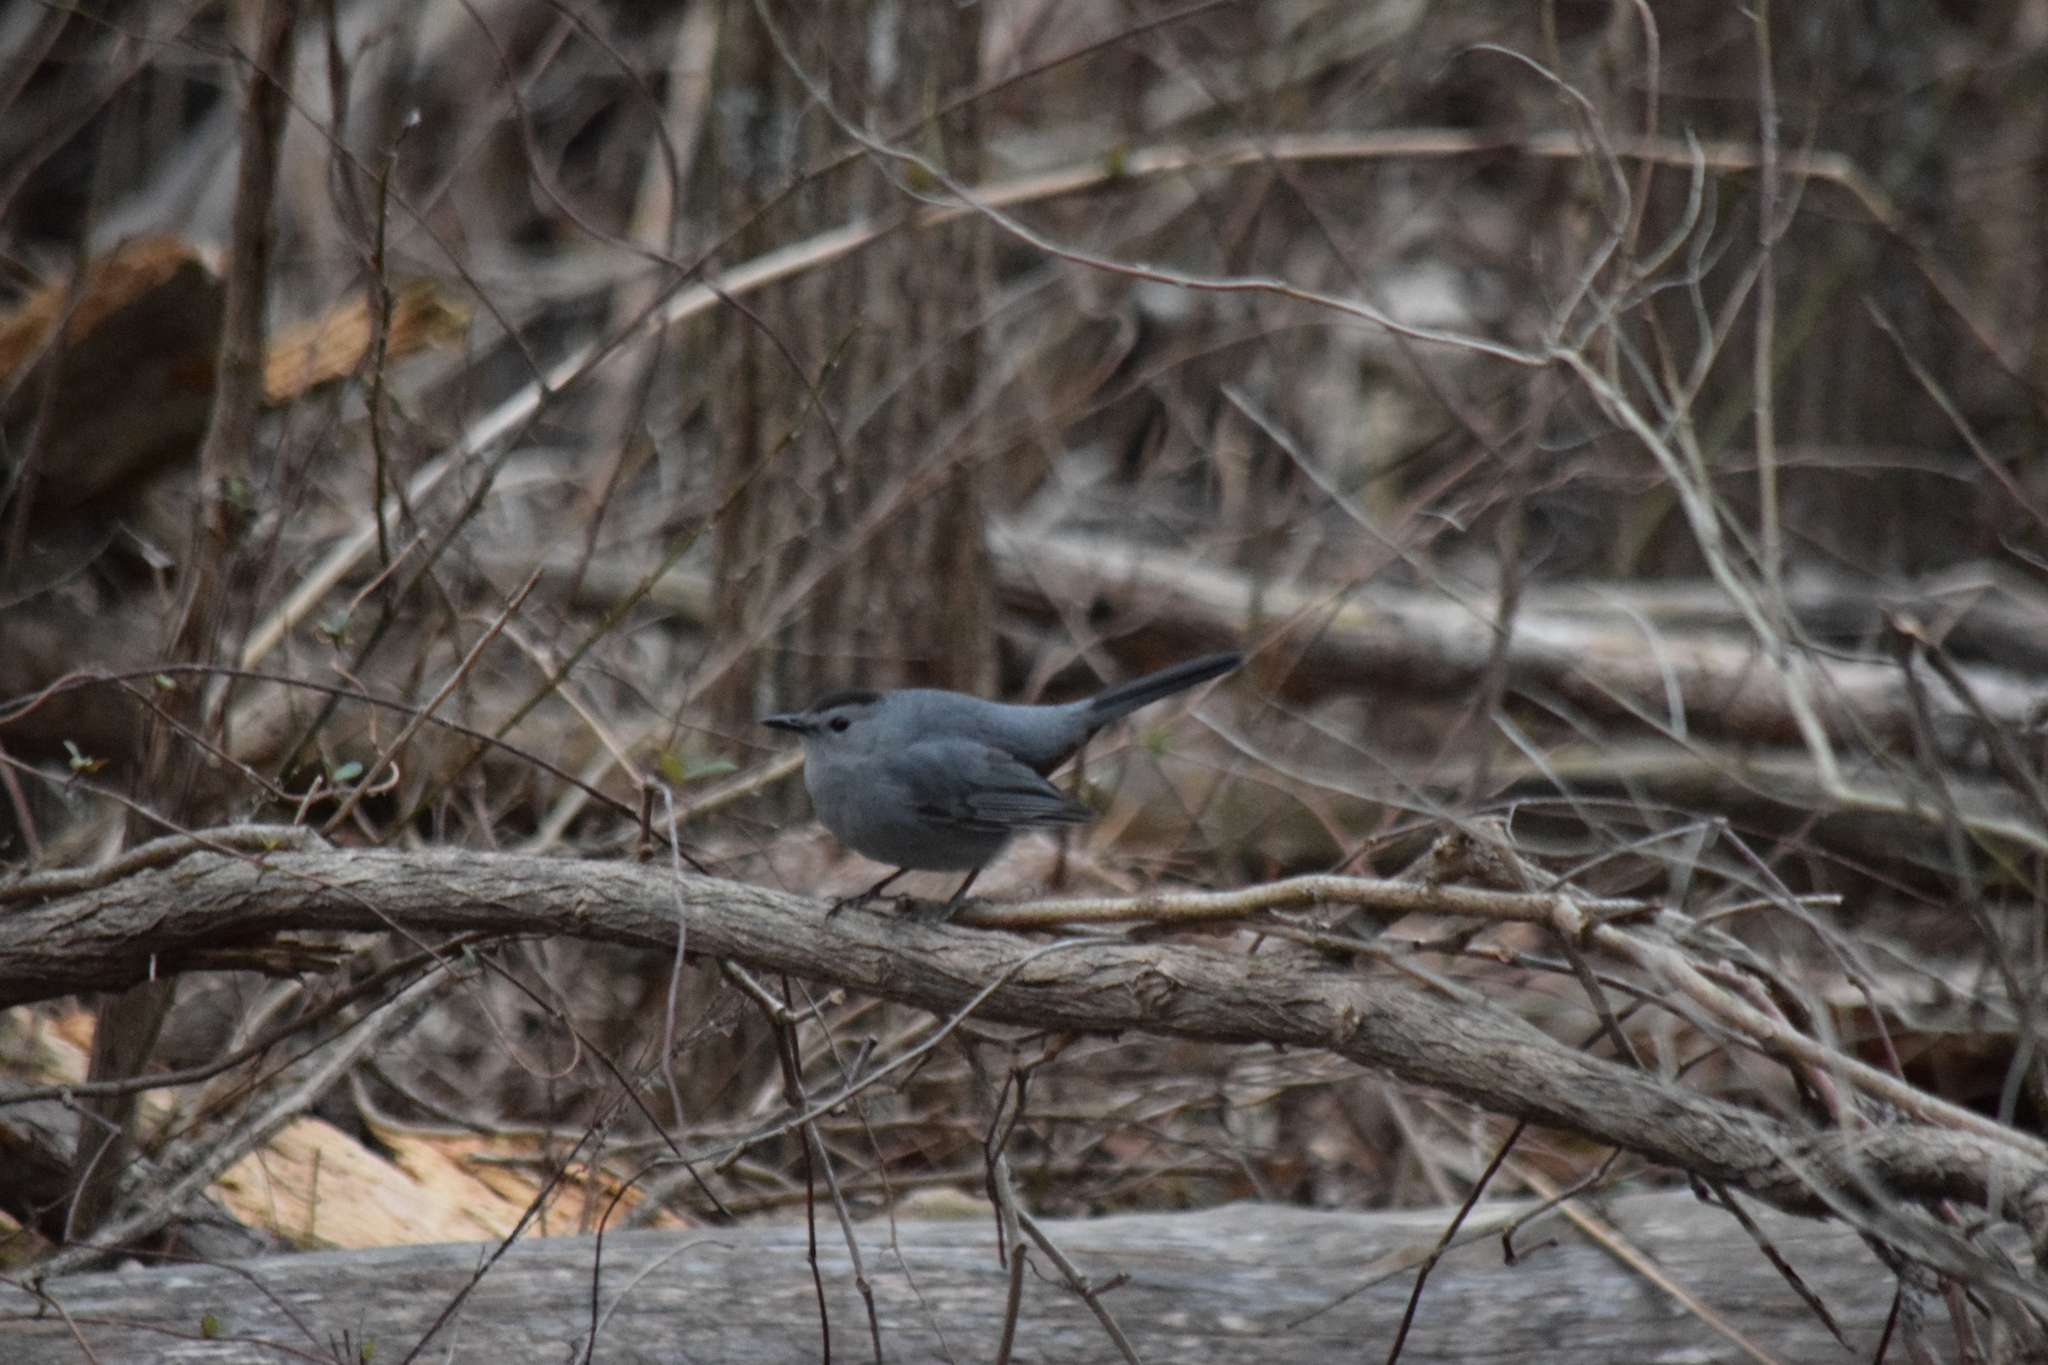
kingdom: Animalia
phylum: Chordata
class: Aves
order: Passeriformes
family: Mimidae
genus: Dumetella
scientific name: Dumetella carolinensis
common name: Gray catbird
